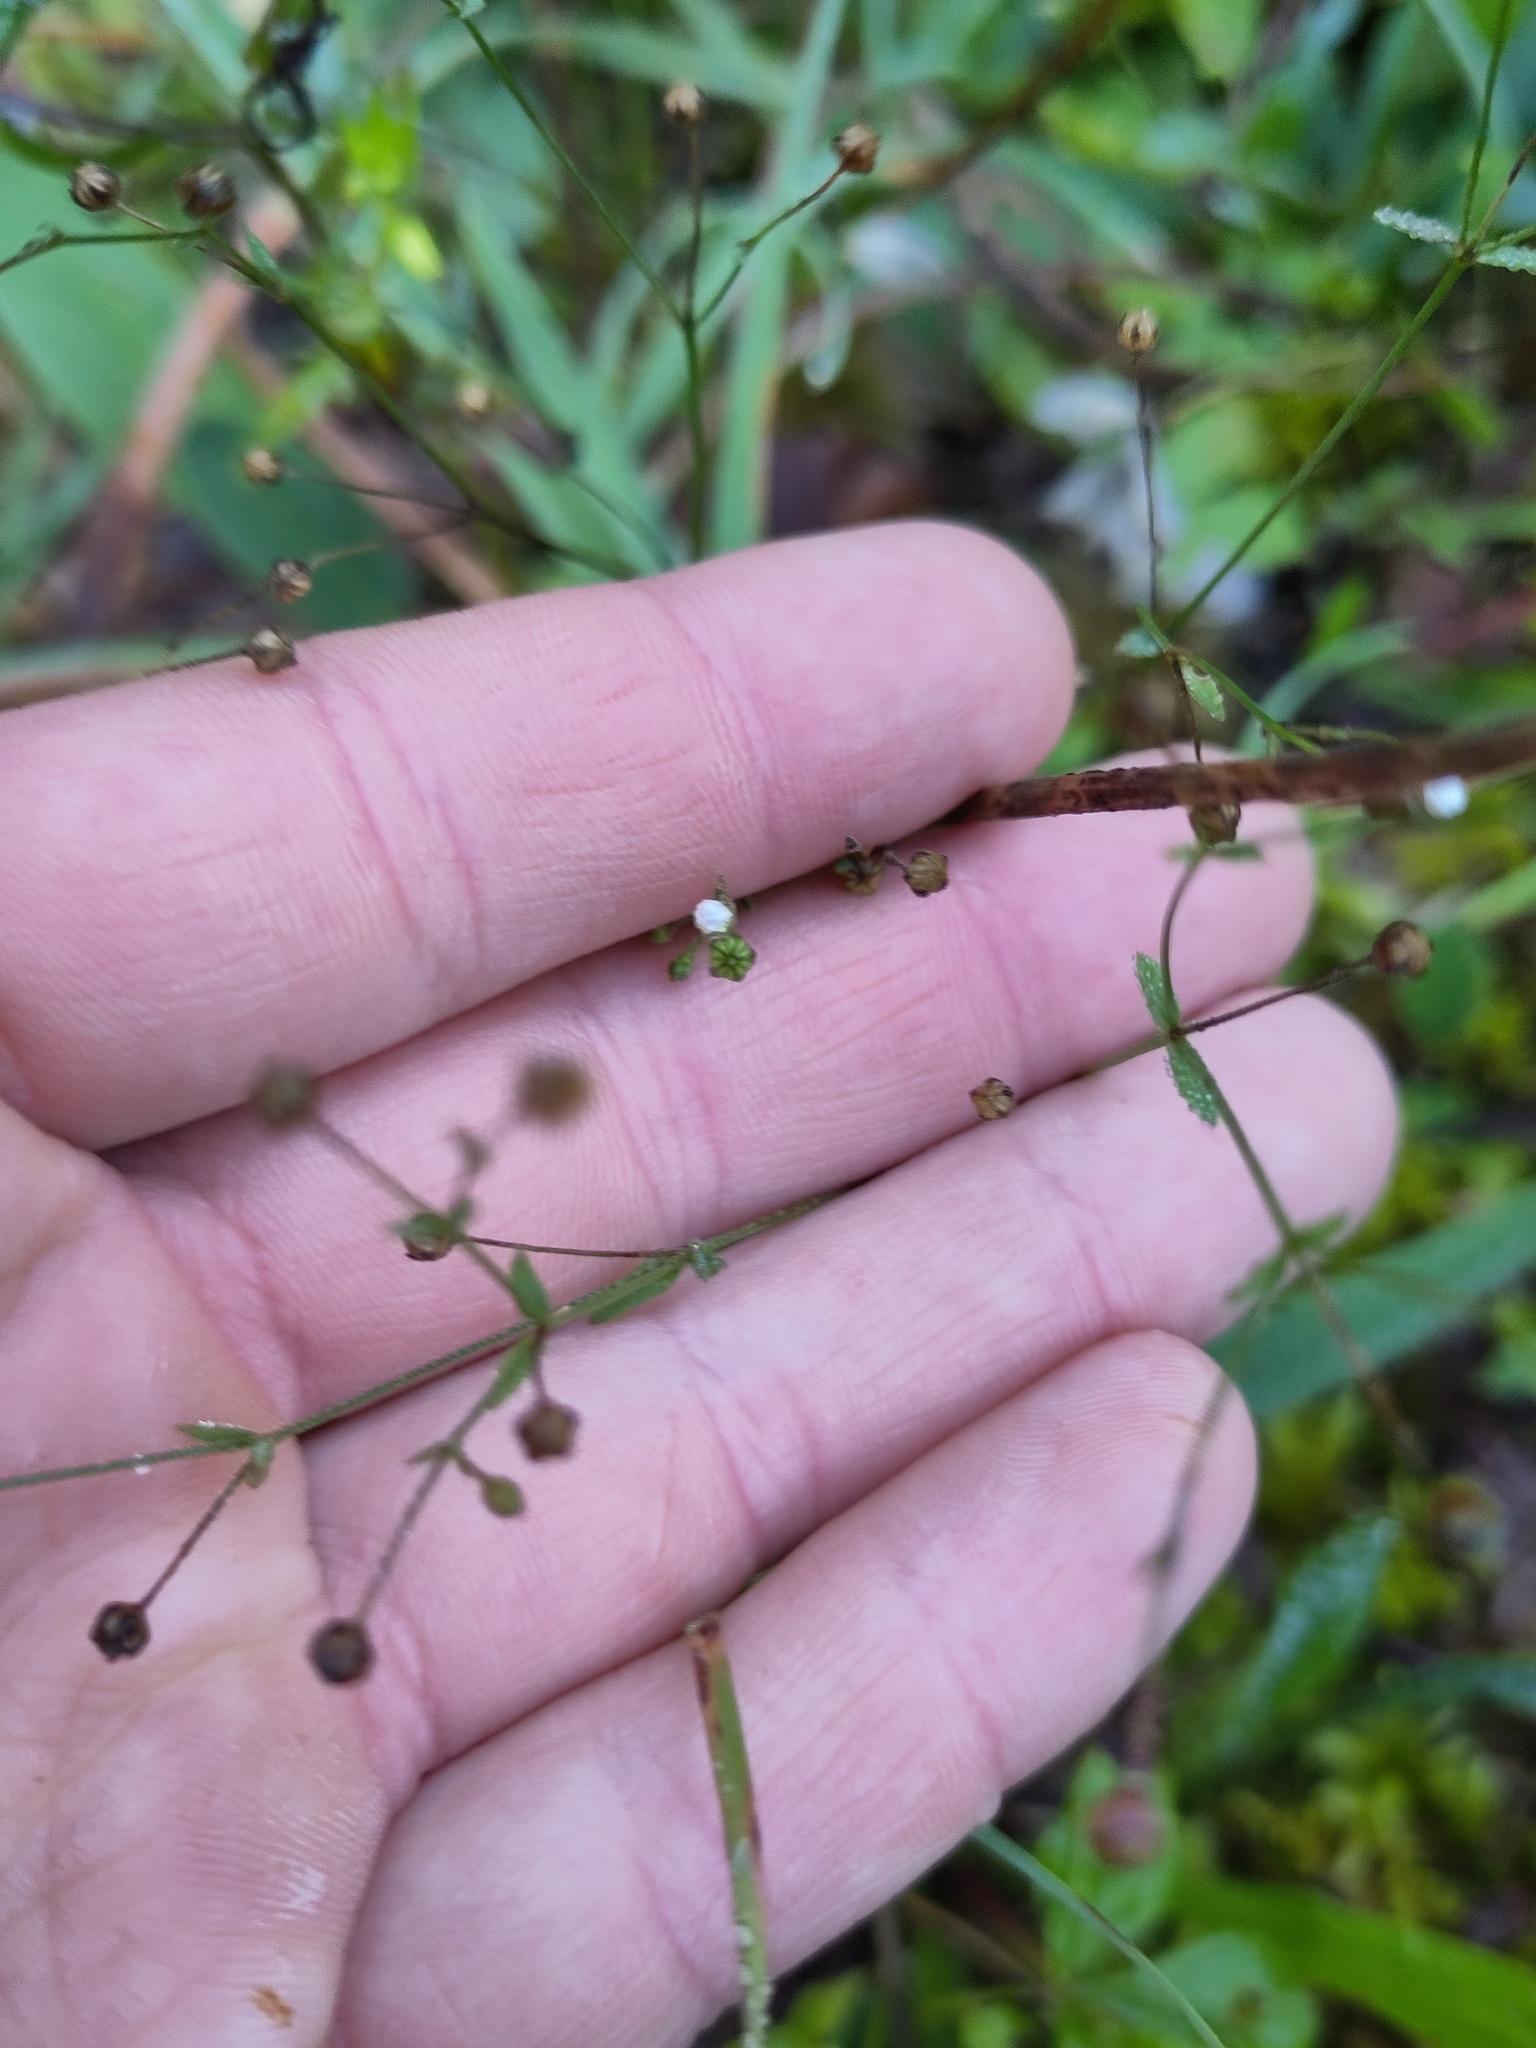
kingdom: Plantae
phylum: Tracheophyta
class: Magnoliopsida
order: Malpighiales
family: Linaceae
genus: Linum
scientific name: Linum catharticum
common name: Fairy flax
